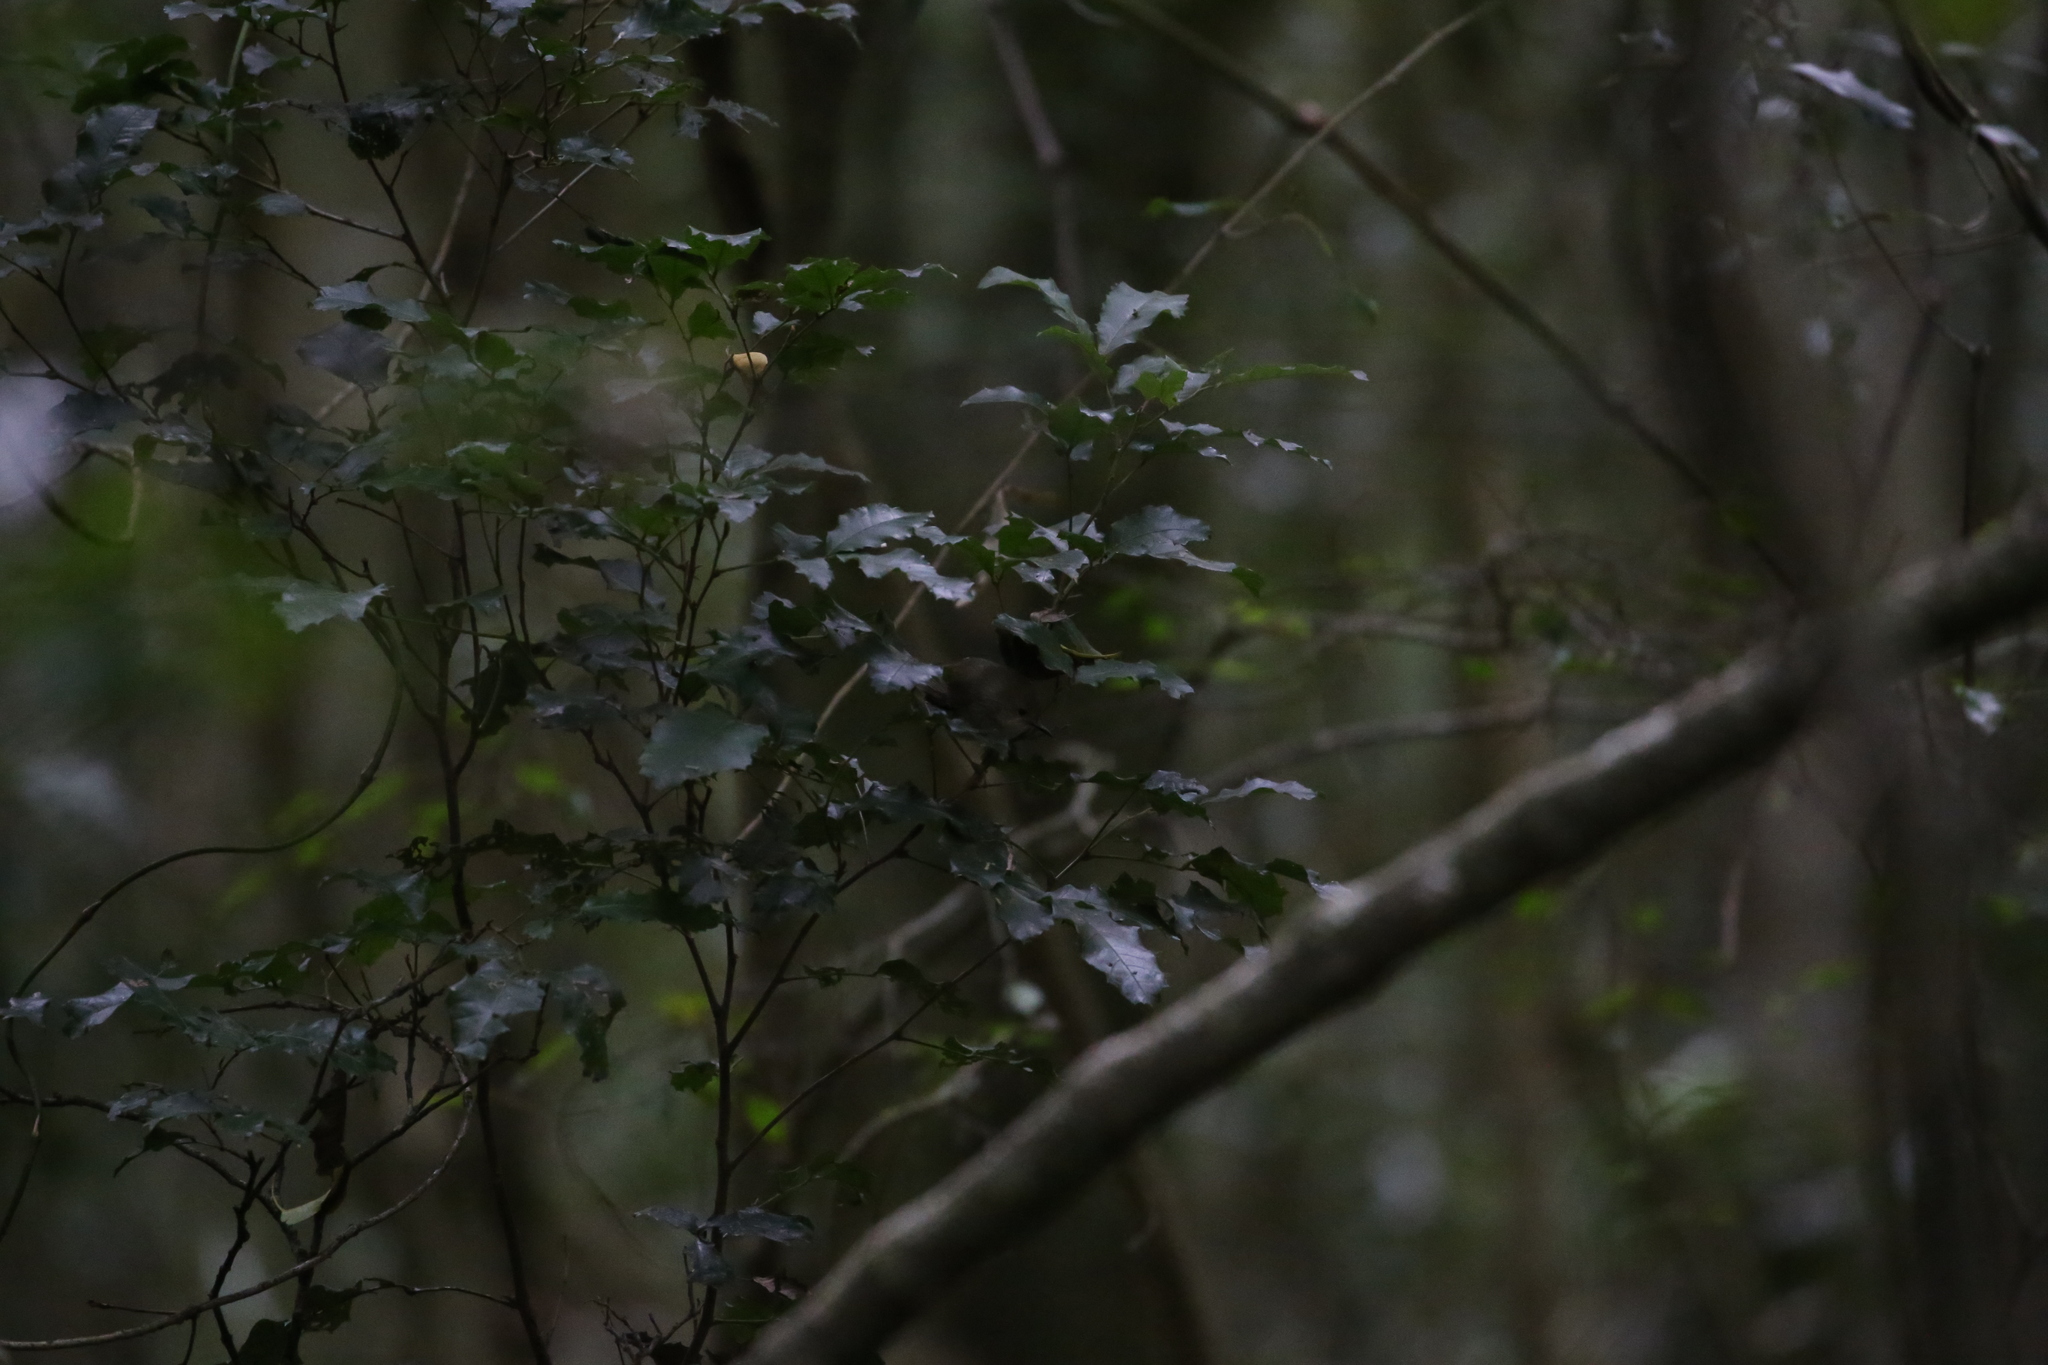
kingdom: Animalia
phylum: Chordata
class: Aves
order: Passeriformes
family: Acanthizidae
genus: Sericornis
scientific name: Sericornis magnirostra
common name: Large-billed scrubwren
